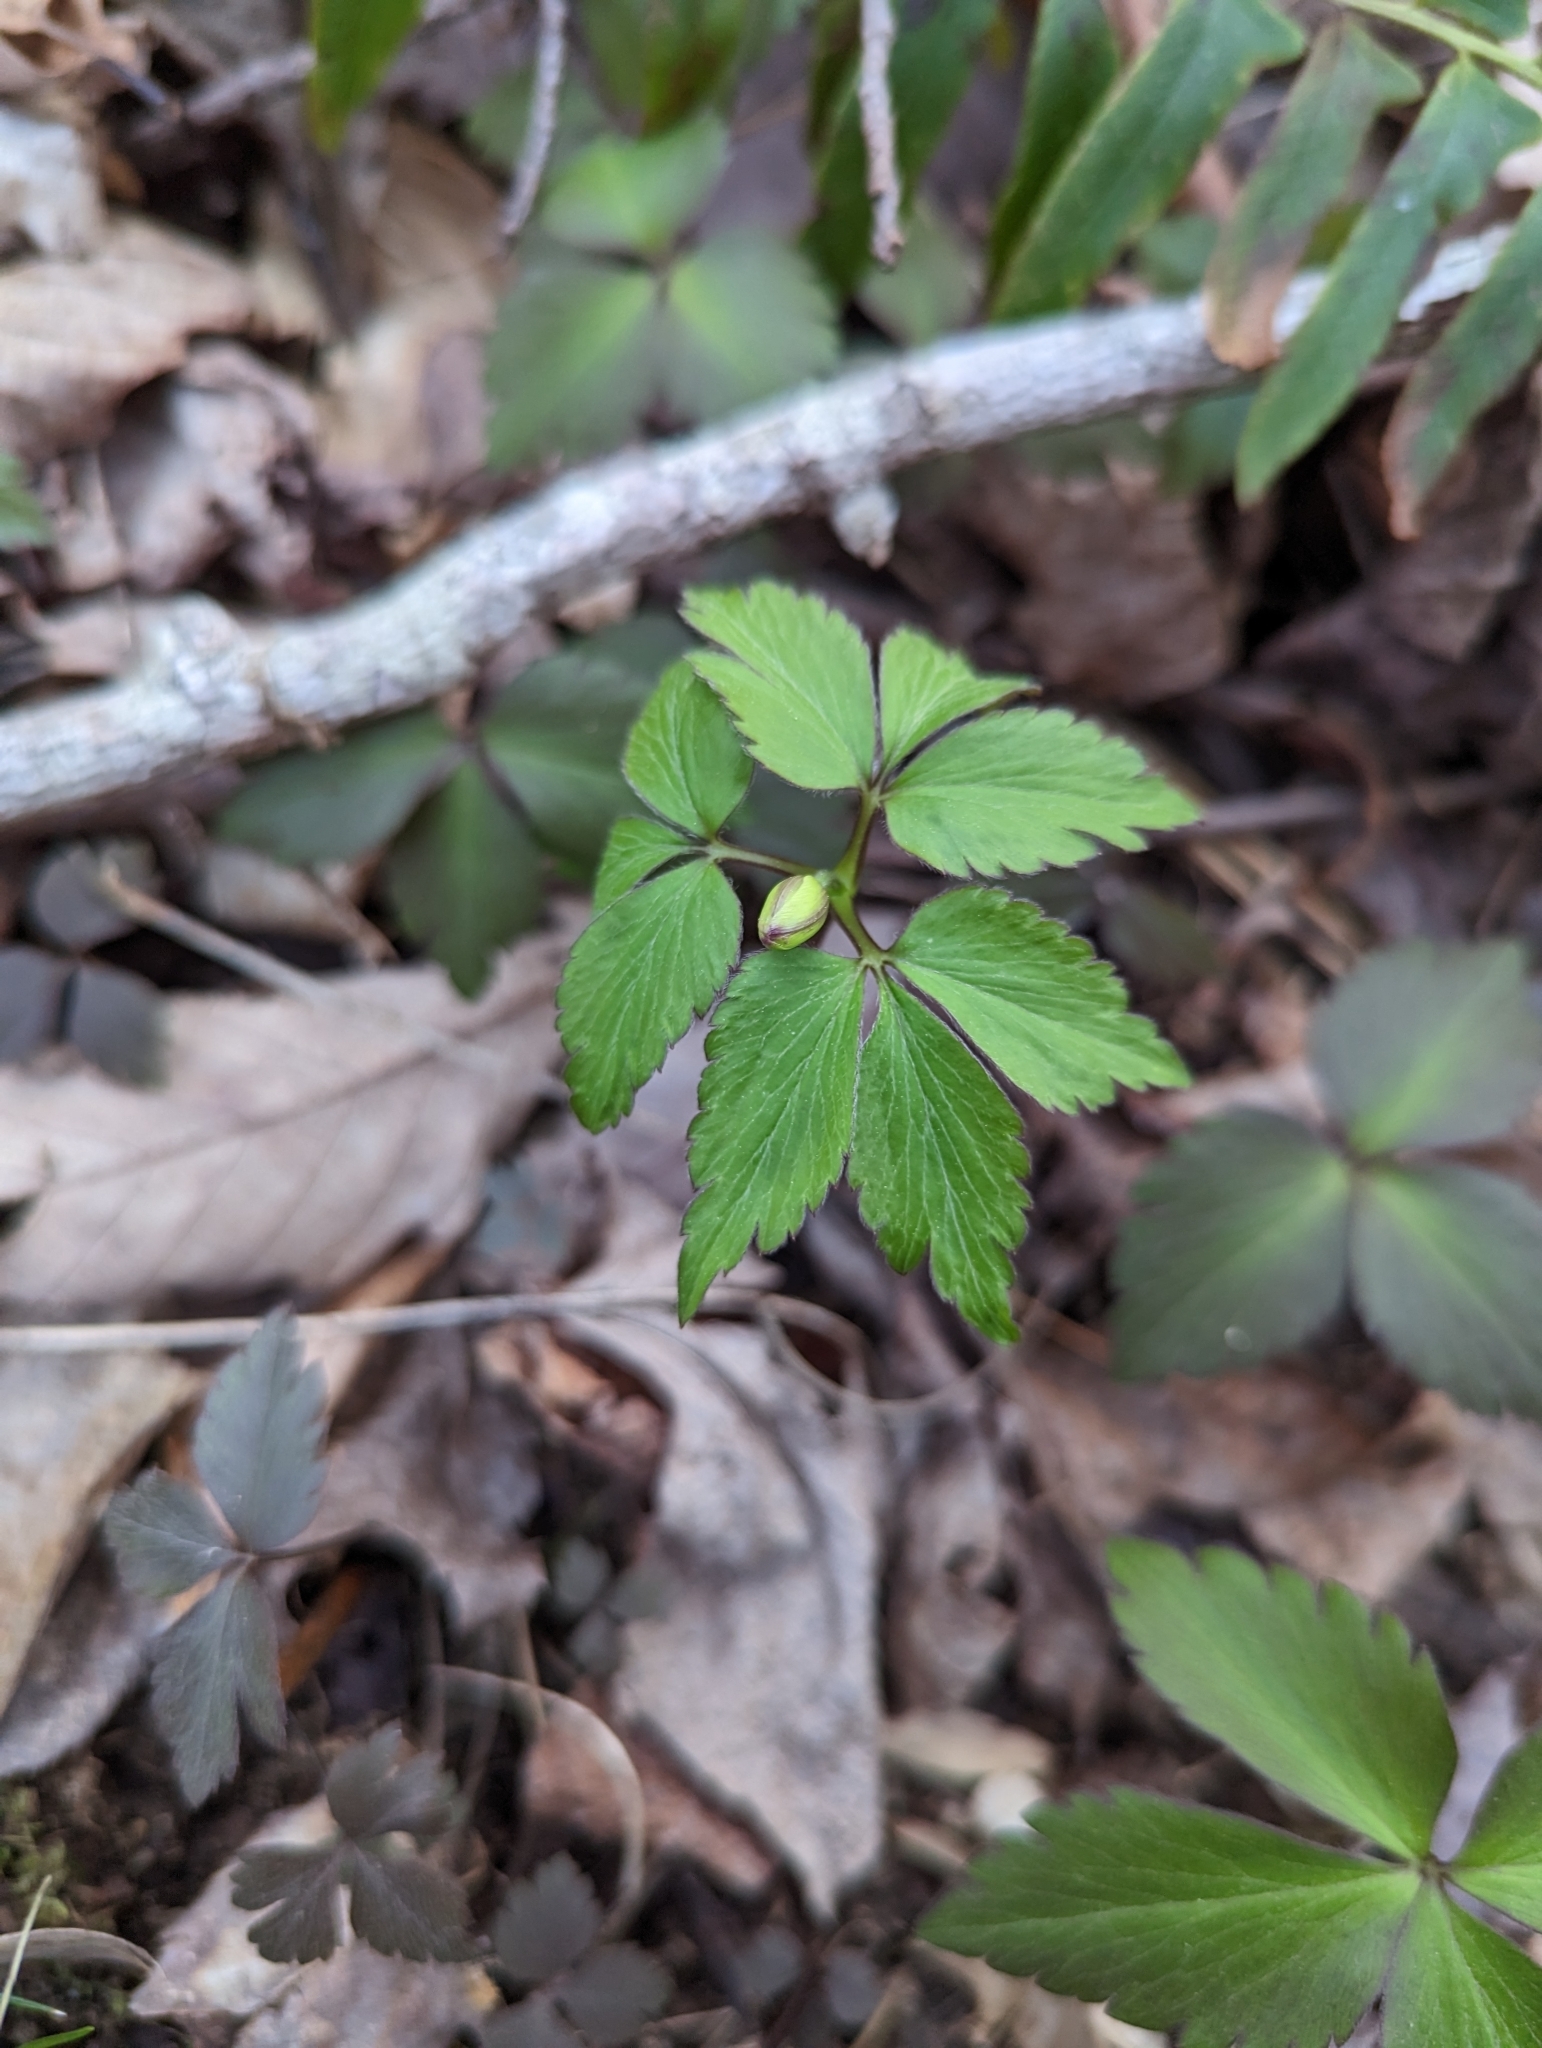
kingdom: Plantae
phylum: Tracheophyta
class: Magnoliopsida
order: Ranunculales
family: Ranunculaceae
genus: Anemone
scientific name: Anemone lancifolia
